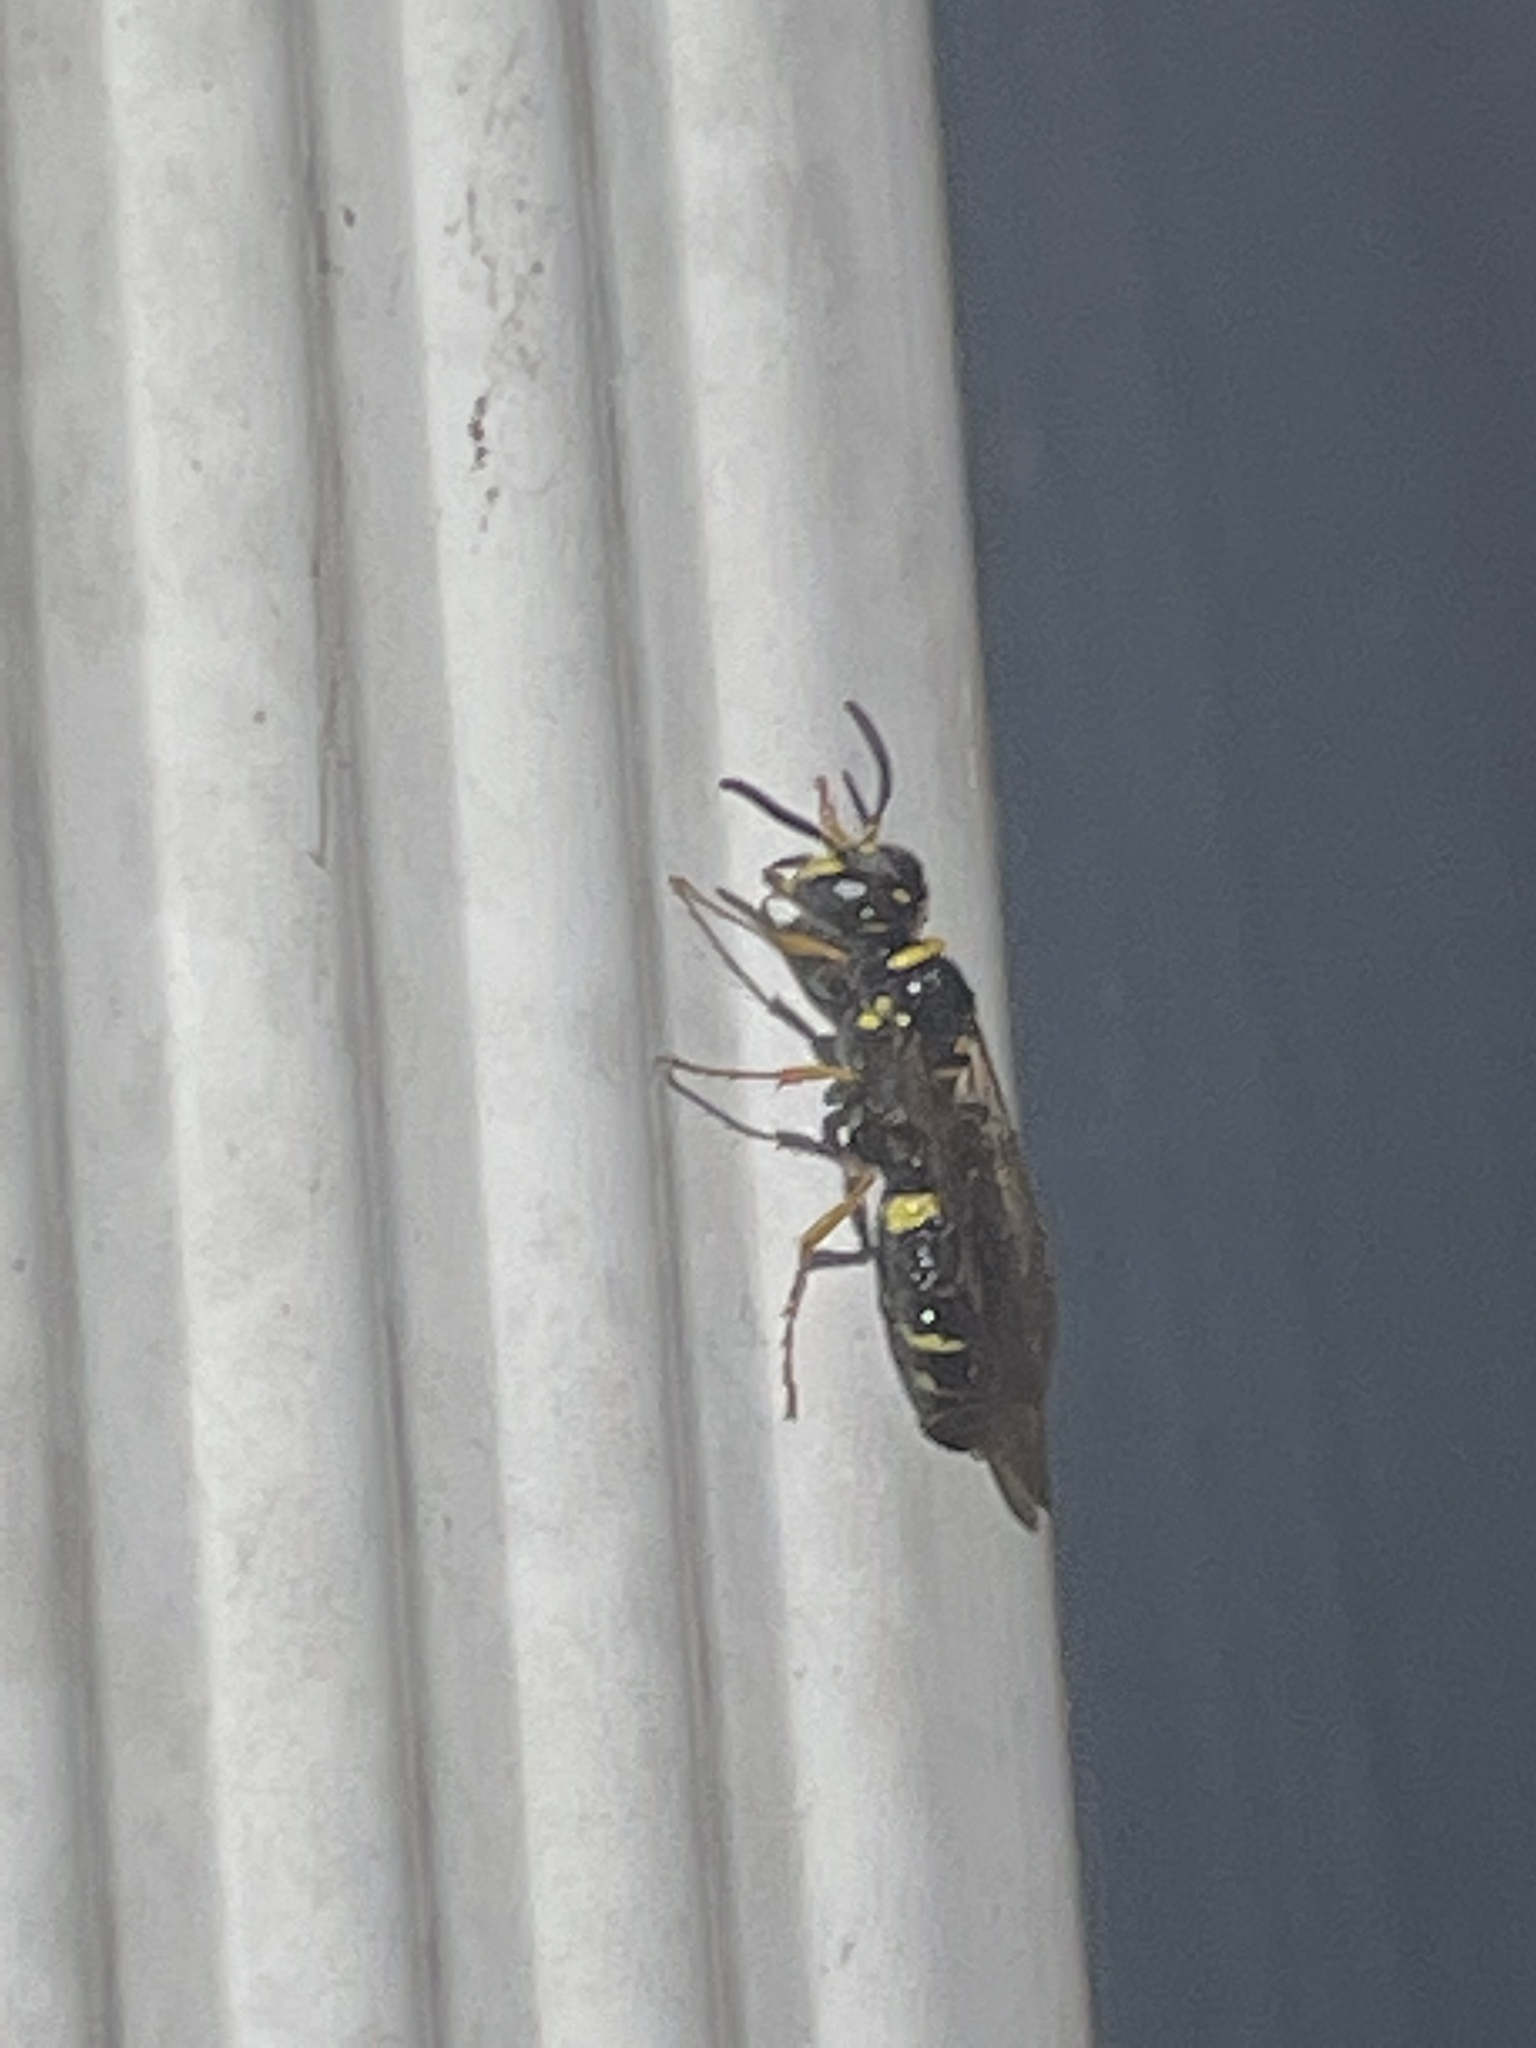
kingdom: Animalia
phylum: Arthropoda
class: Insecta
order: Hymenoptera
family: Crabronidae
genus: Philanthus
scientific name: Philanthus gibbosus
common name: Humped beewolf
